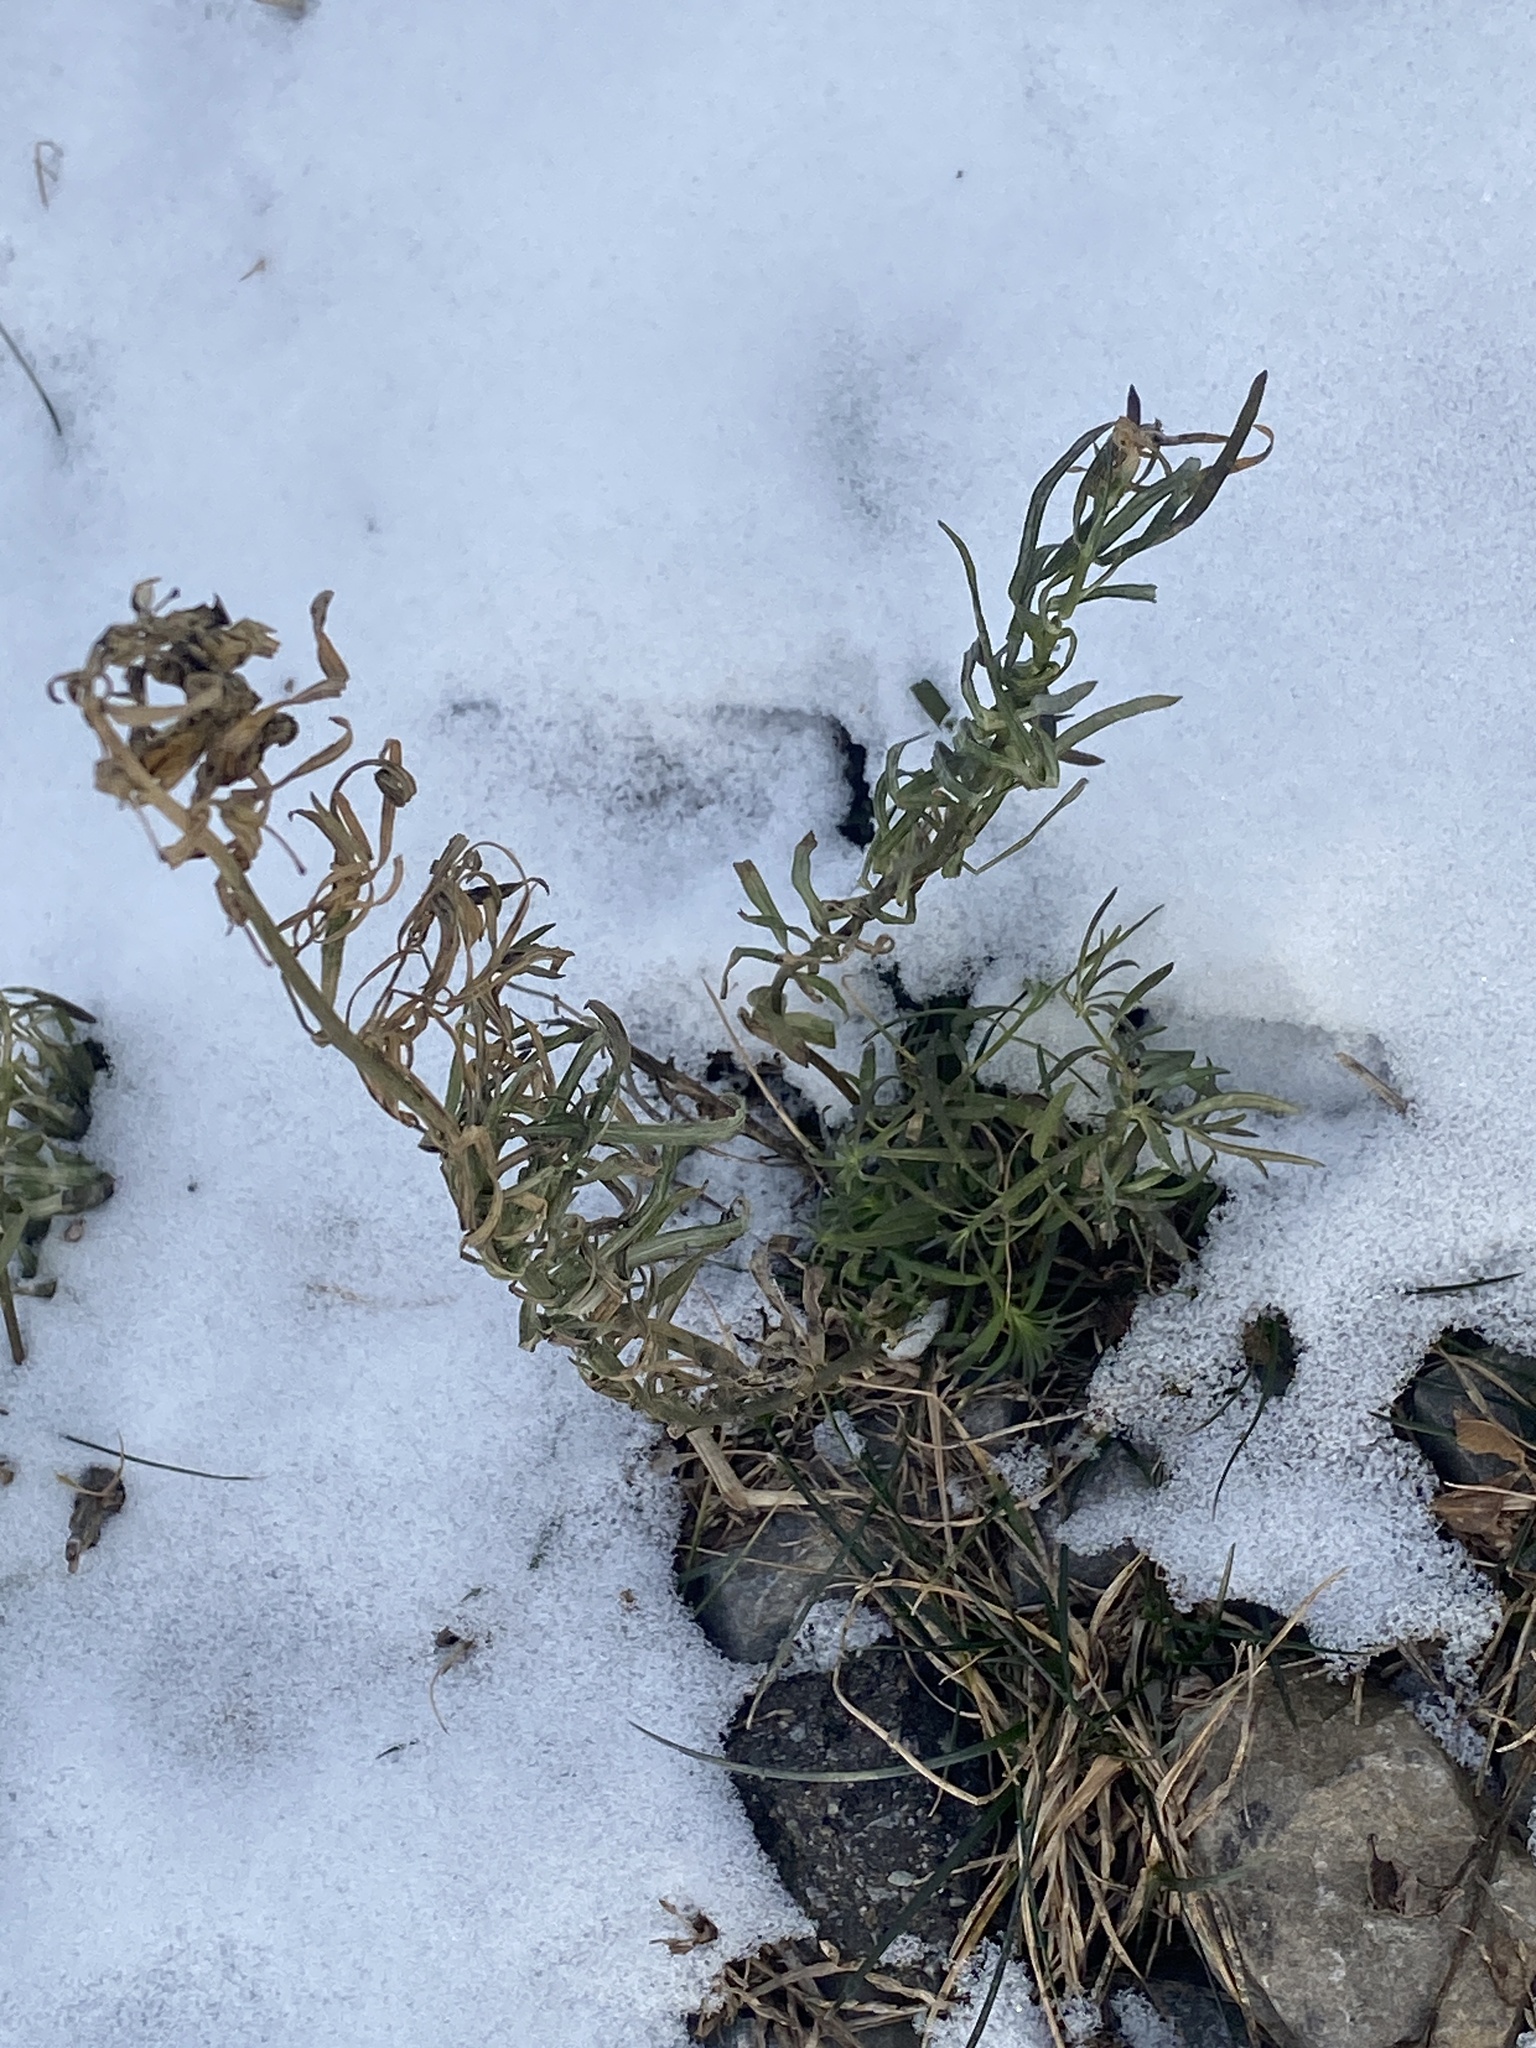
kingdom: Plantae
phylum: Tracheophyta
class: Magnoliopsida
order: Lamiales
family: Plantaginaceae
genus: Linaria
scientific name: Linaria vulgaris
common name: Butter and eggs
